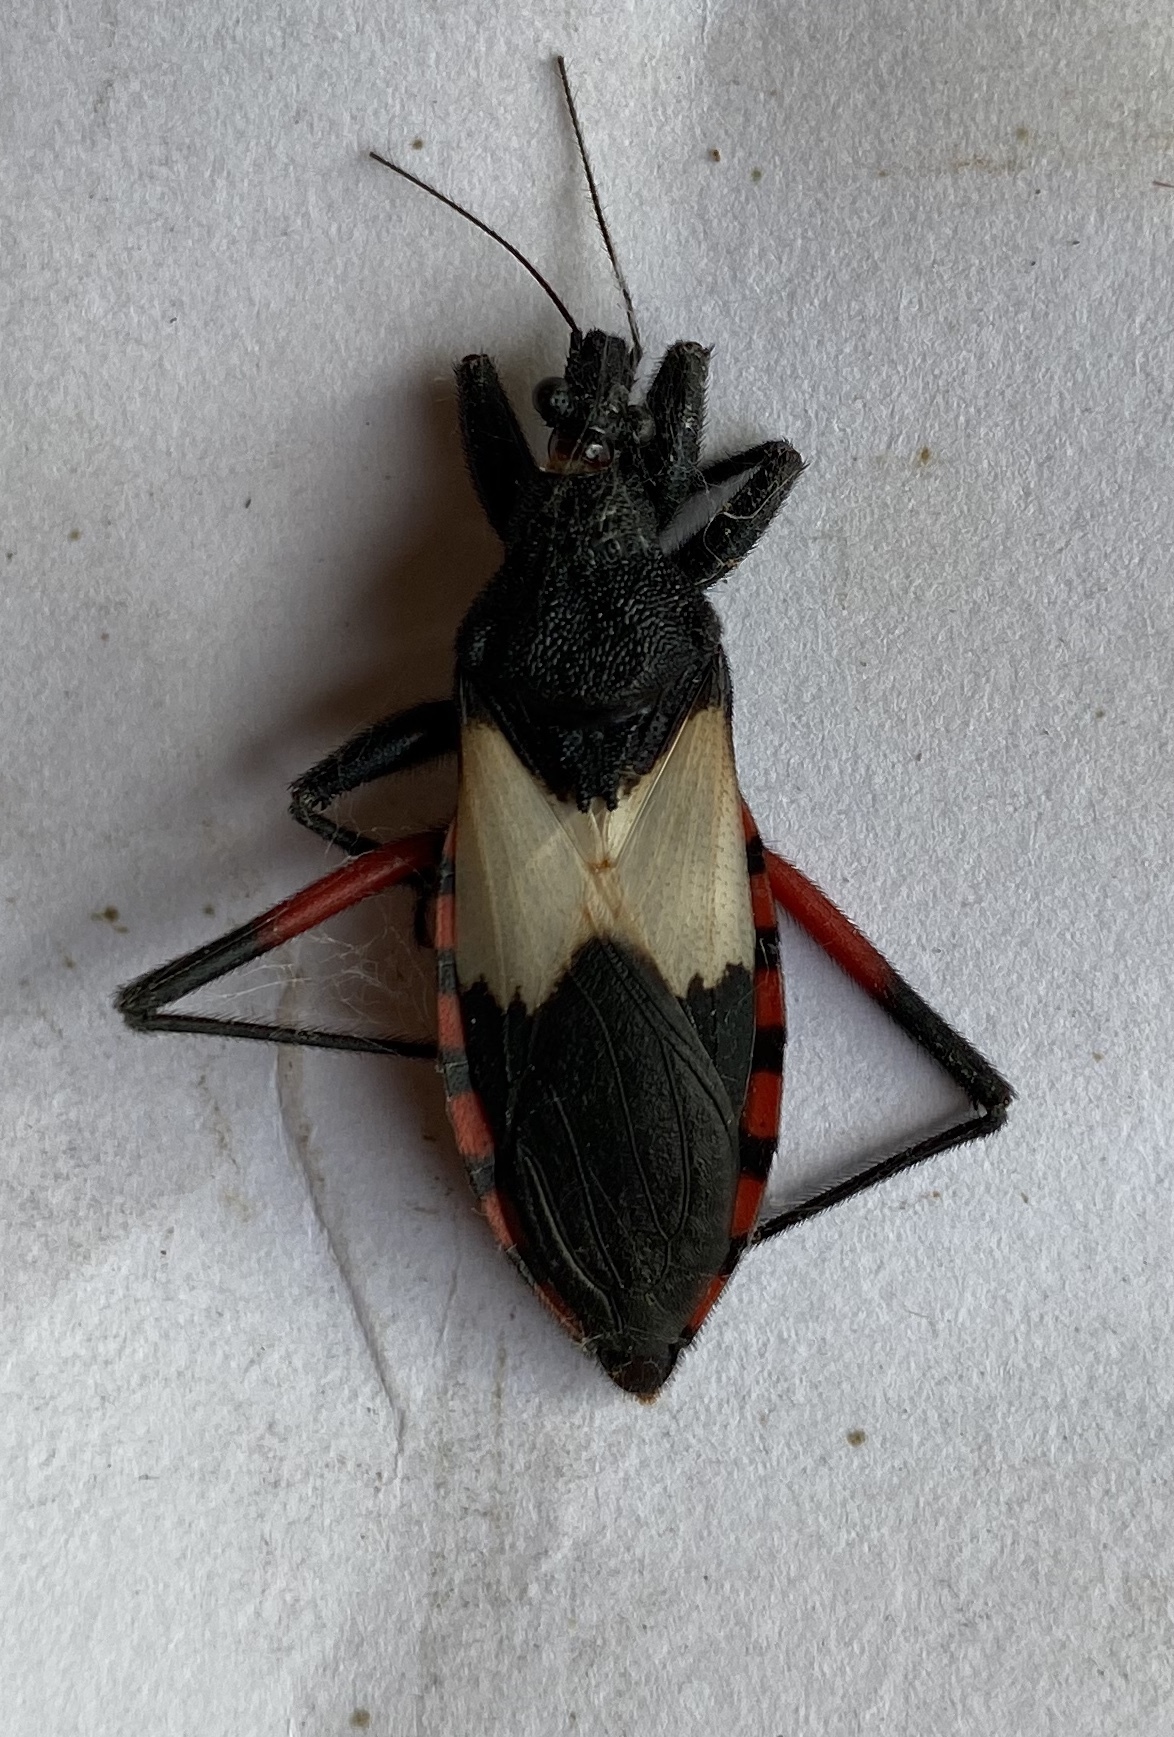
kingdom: Animalia
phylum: Arthropoda
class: Insecta
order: Hemiptera
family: Reduviidae
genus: Microtomus
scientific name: Microtomus purcis
